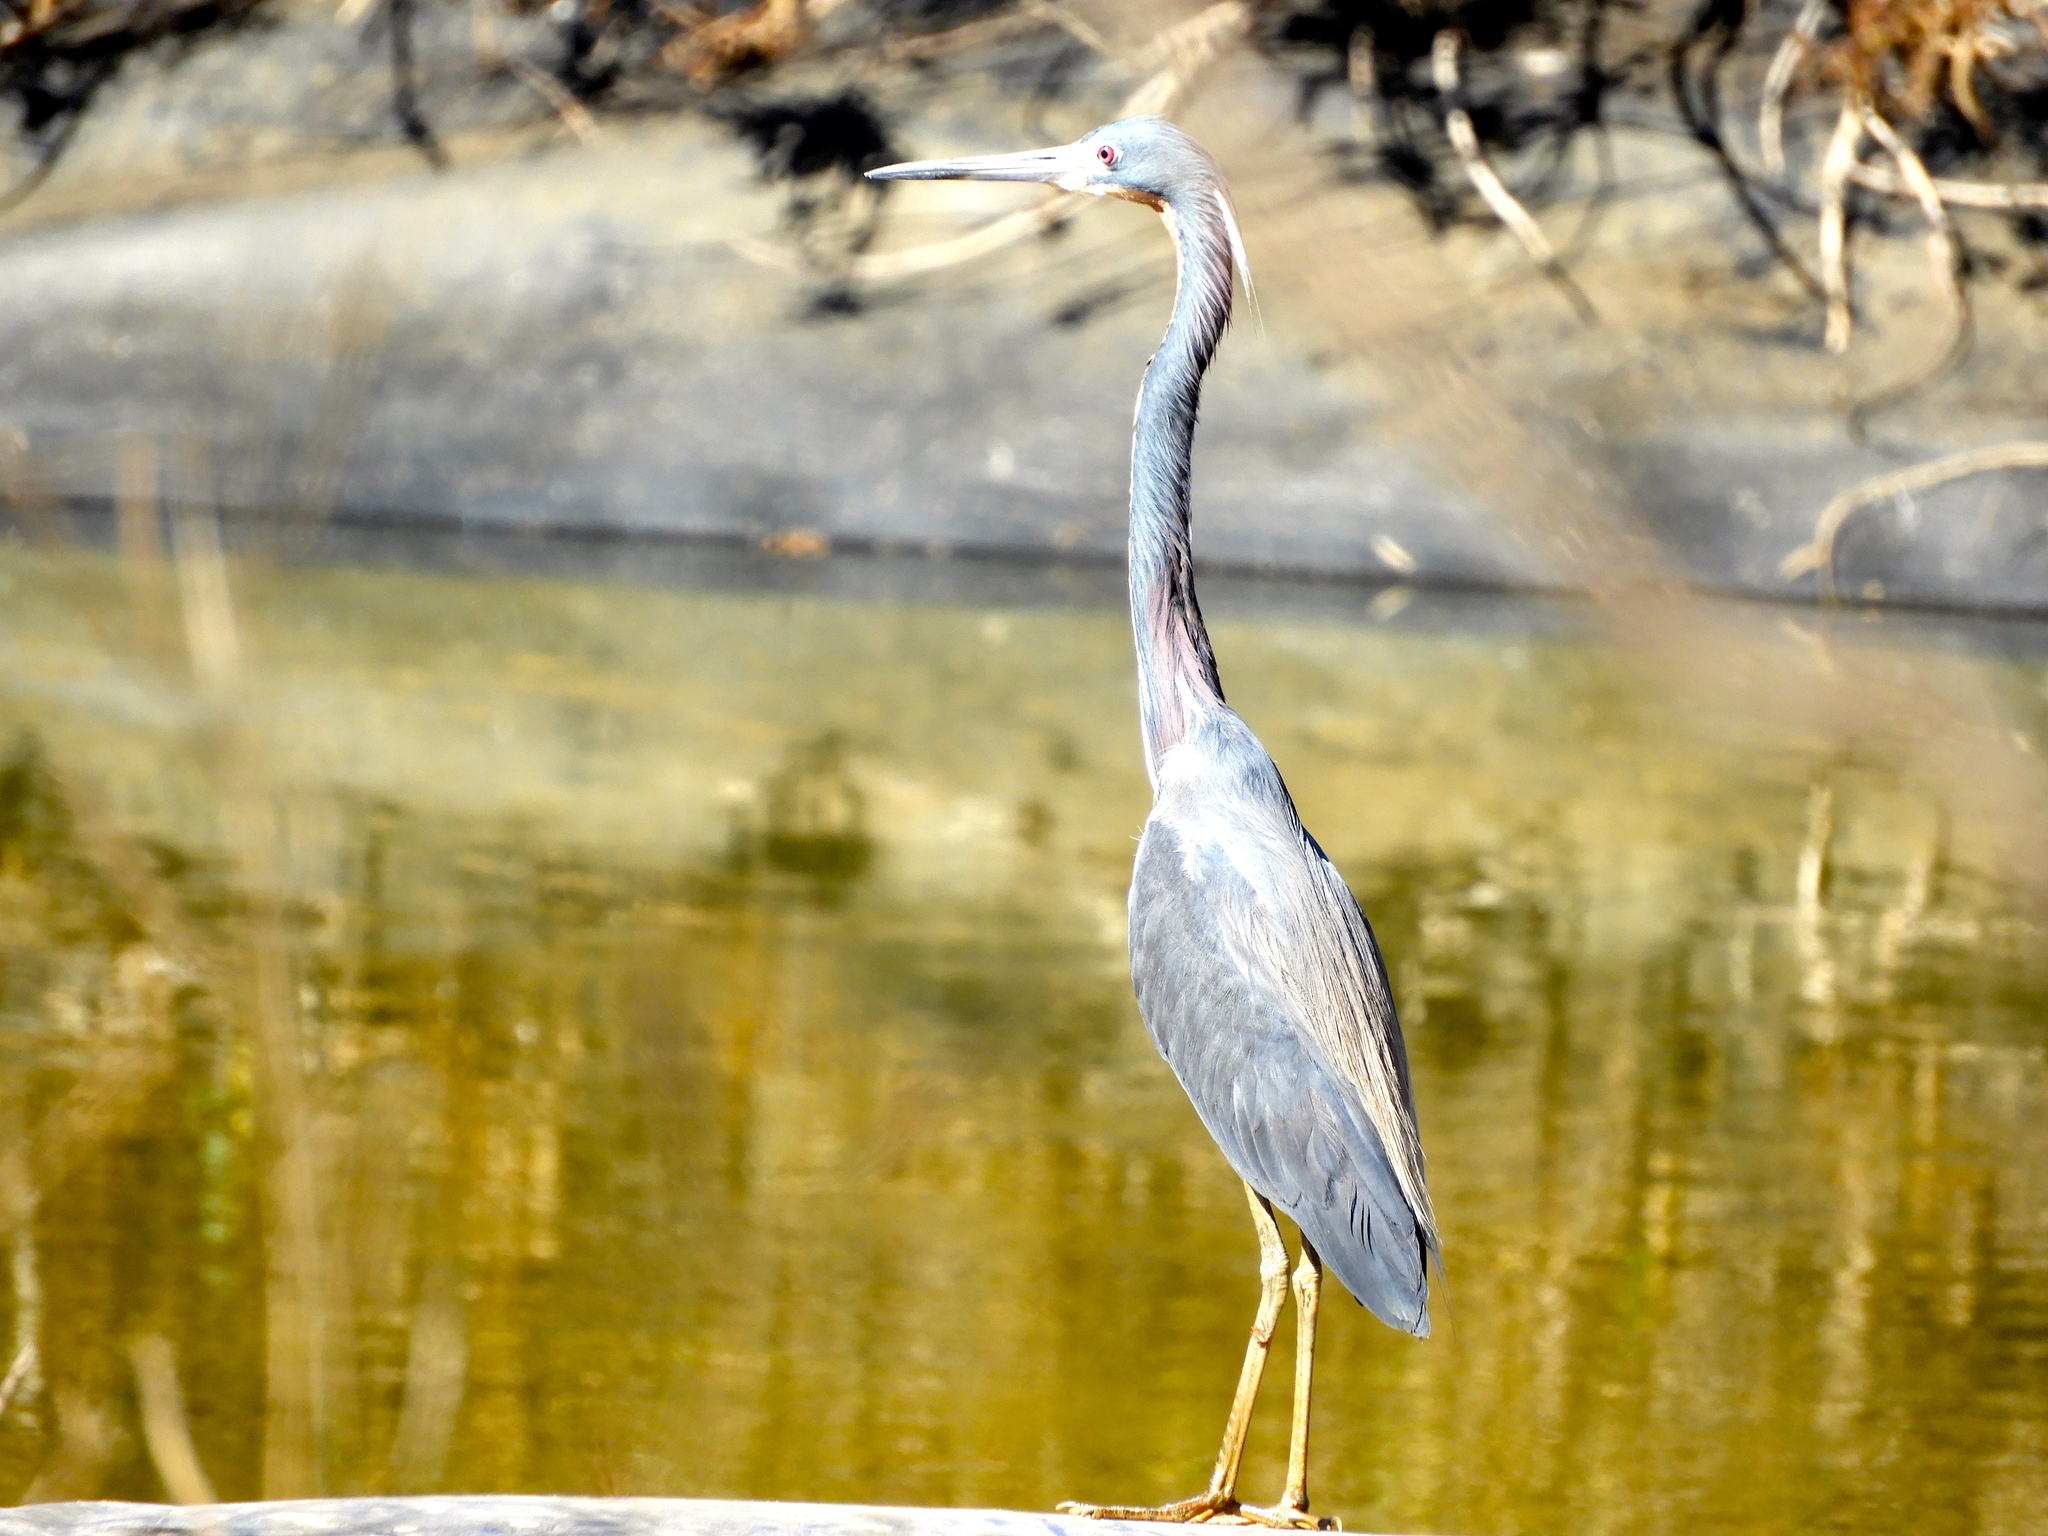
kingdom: Animalia
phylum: Chordata
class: Aves
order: Pelecaniformes
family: Ardeidae
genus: Egretta
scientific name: Egretta tricolor
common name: Tricolored heron
